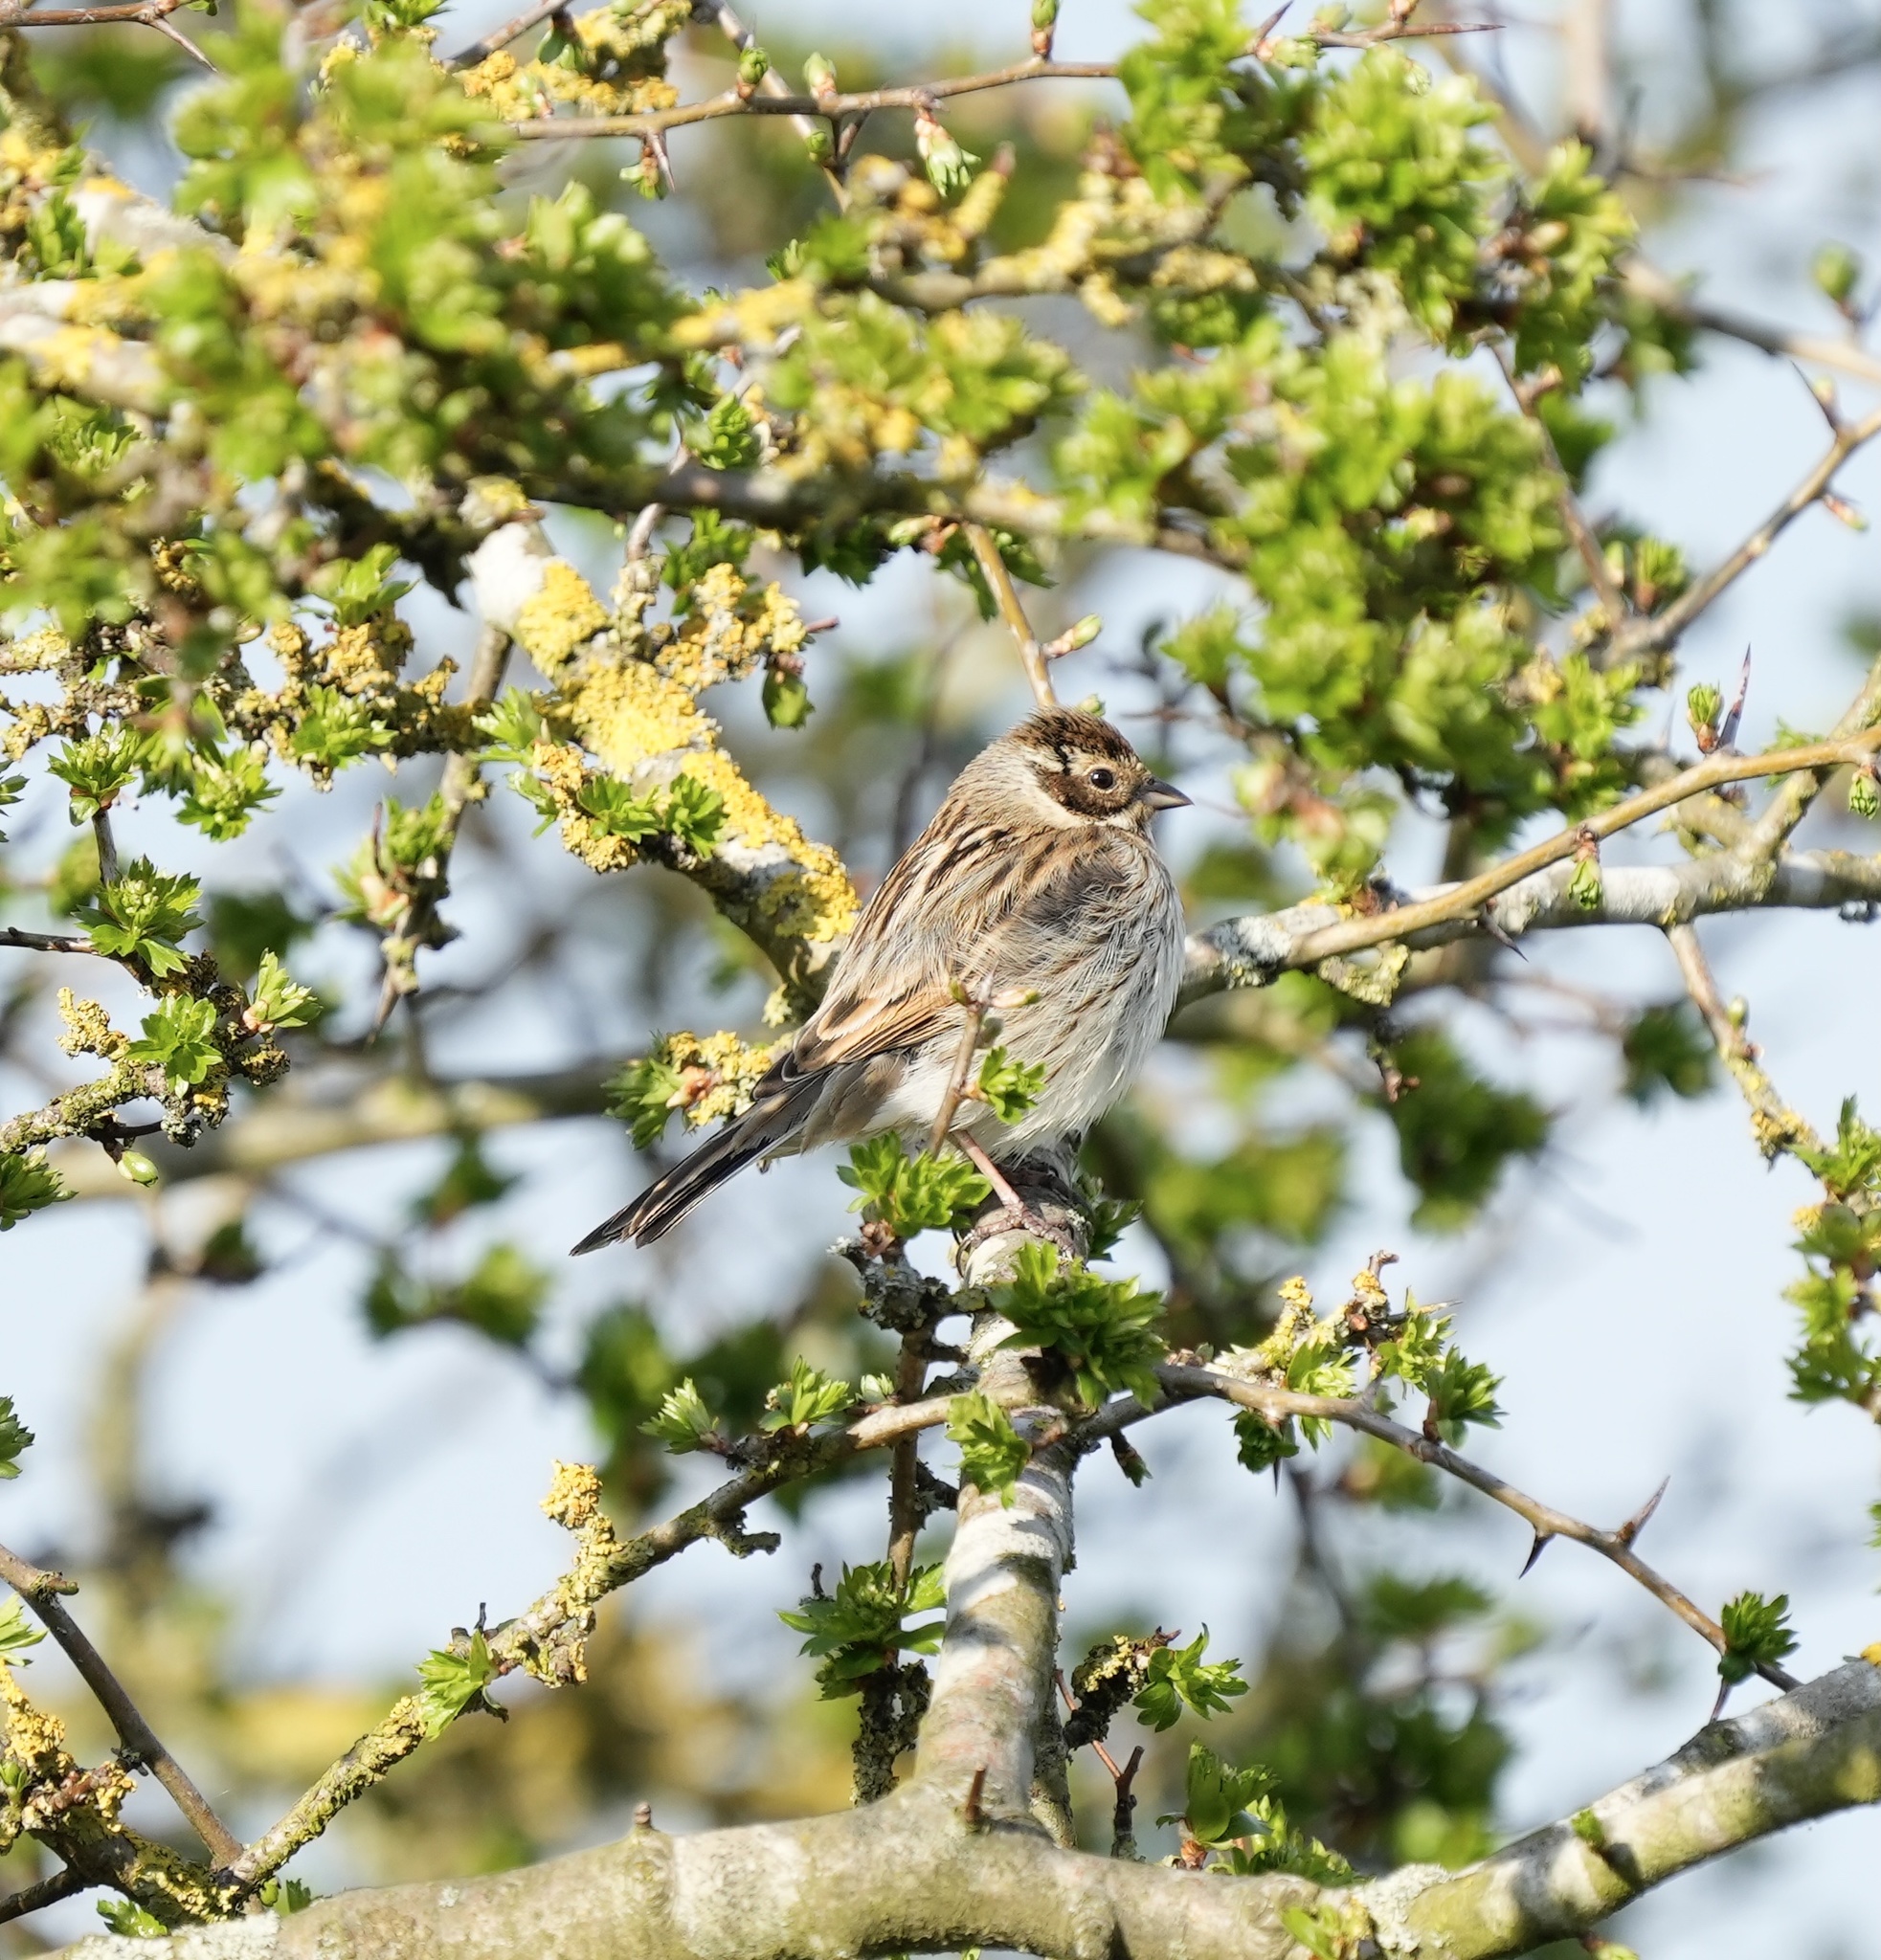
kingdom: Animalia
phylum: Chordata
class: Aves
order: Passeriformes
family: Emberizidae
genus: Emberiza
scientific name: Emberiza schoeniclus
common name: Reed bunting
